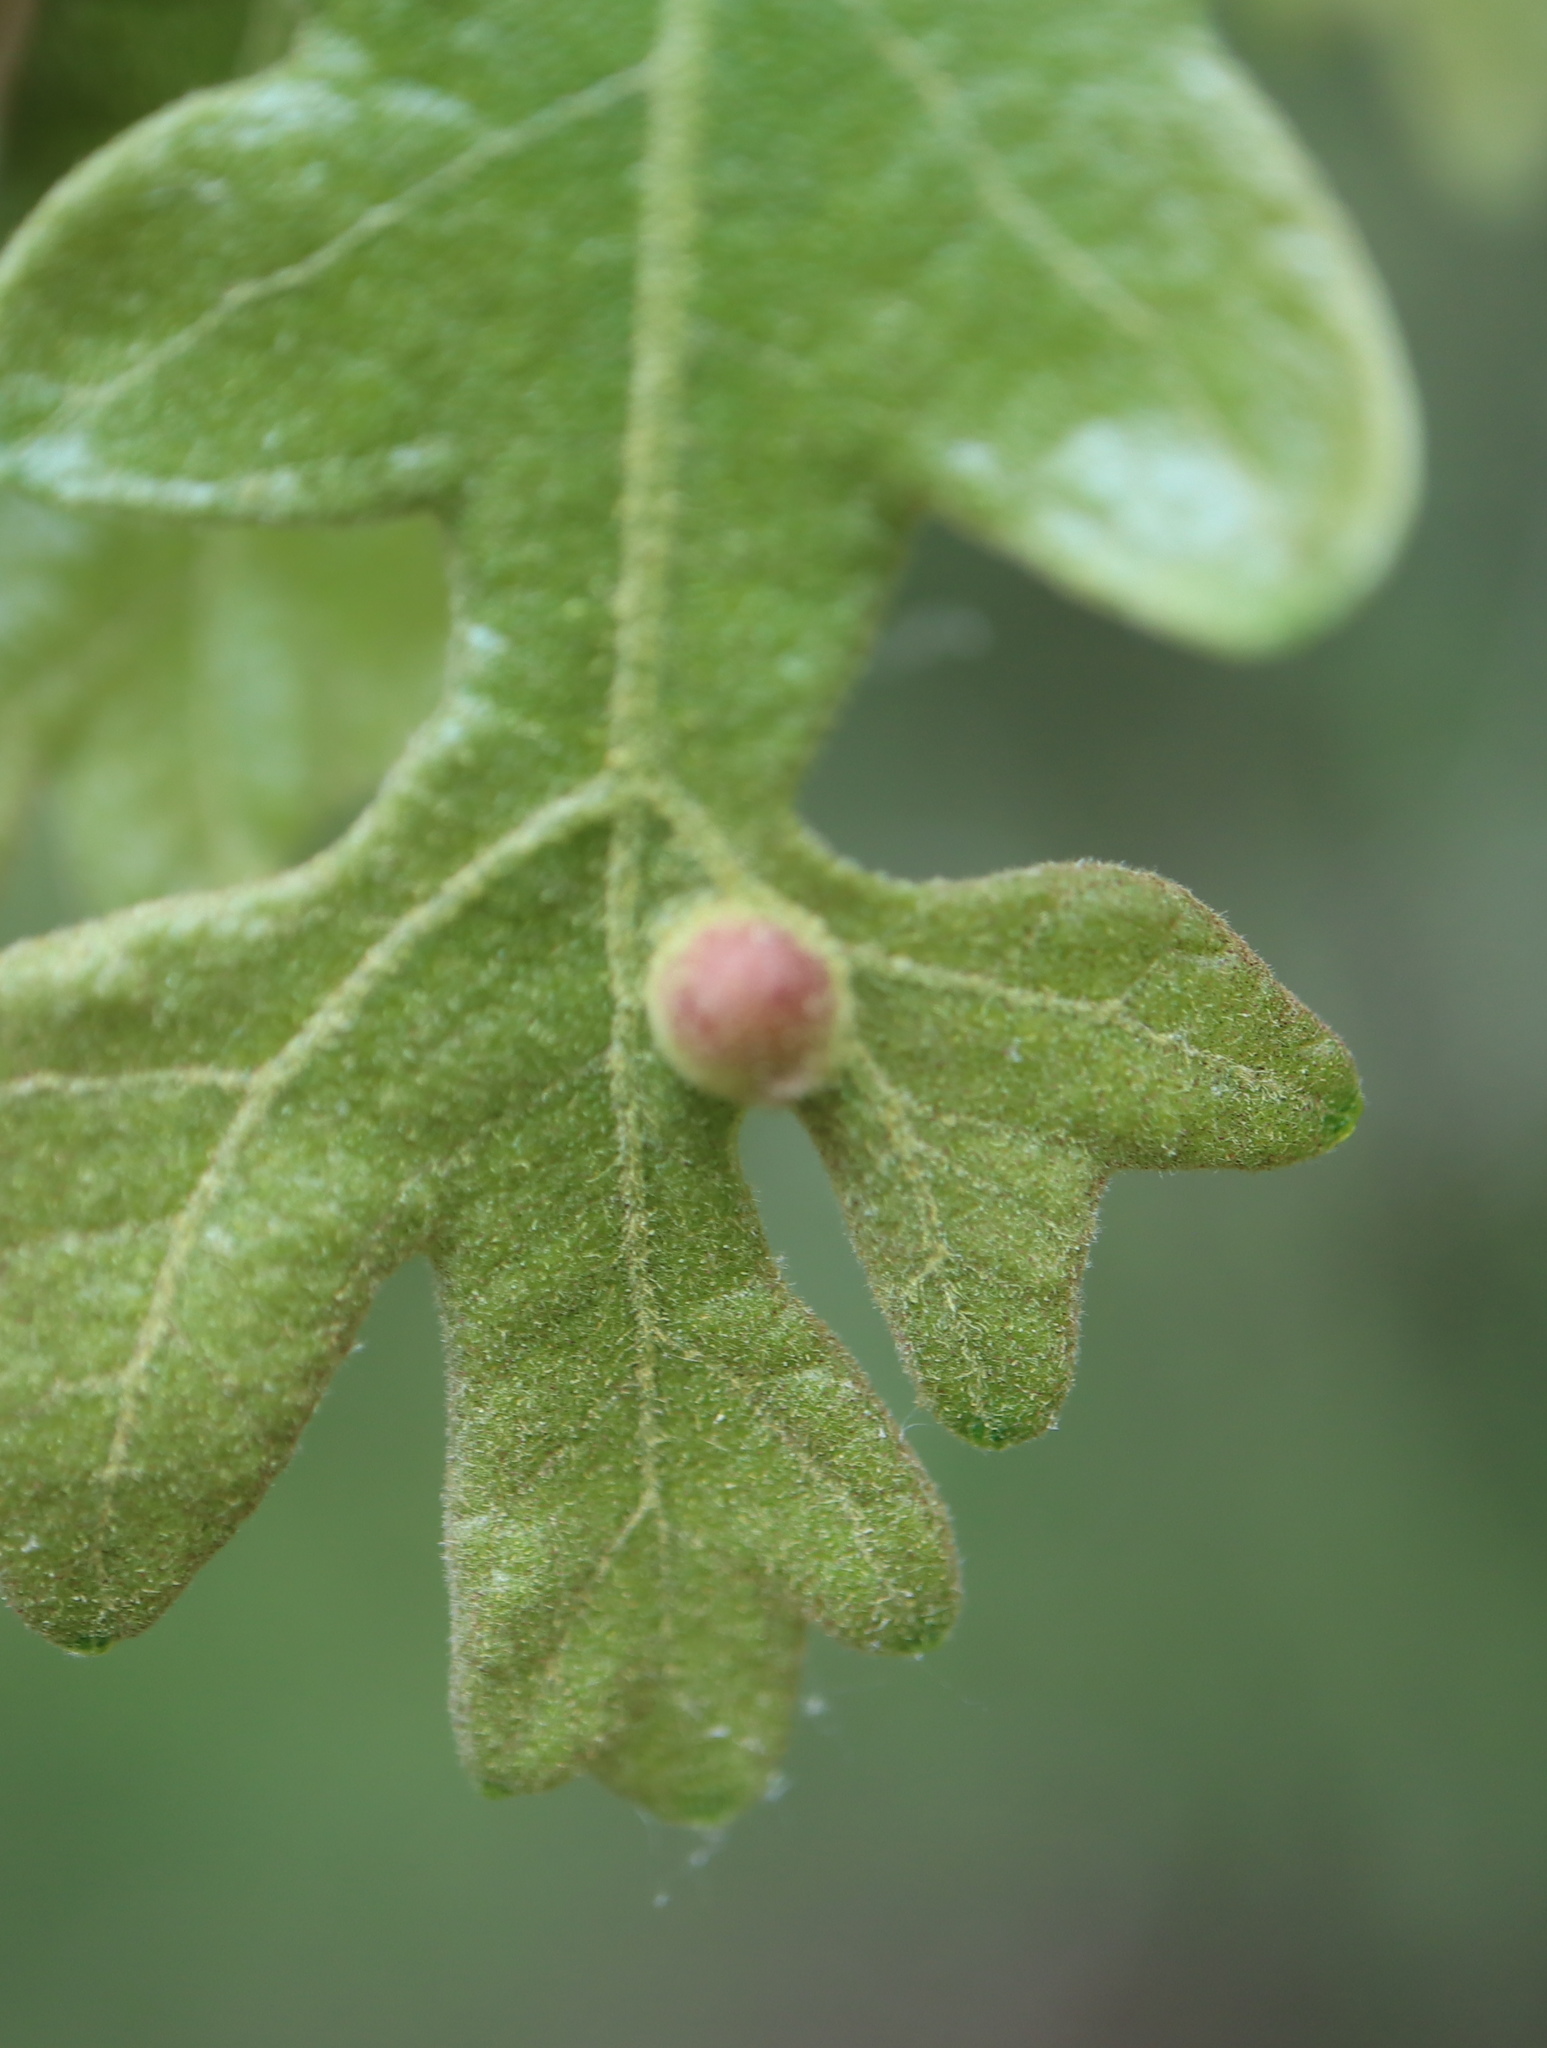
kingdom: Animalia
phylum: Arthropoda
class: Insecta
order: Hymenoptera
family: Cynipidae
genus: Andricus
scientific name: Andricus
